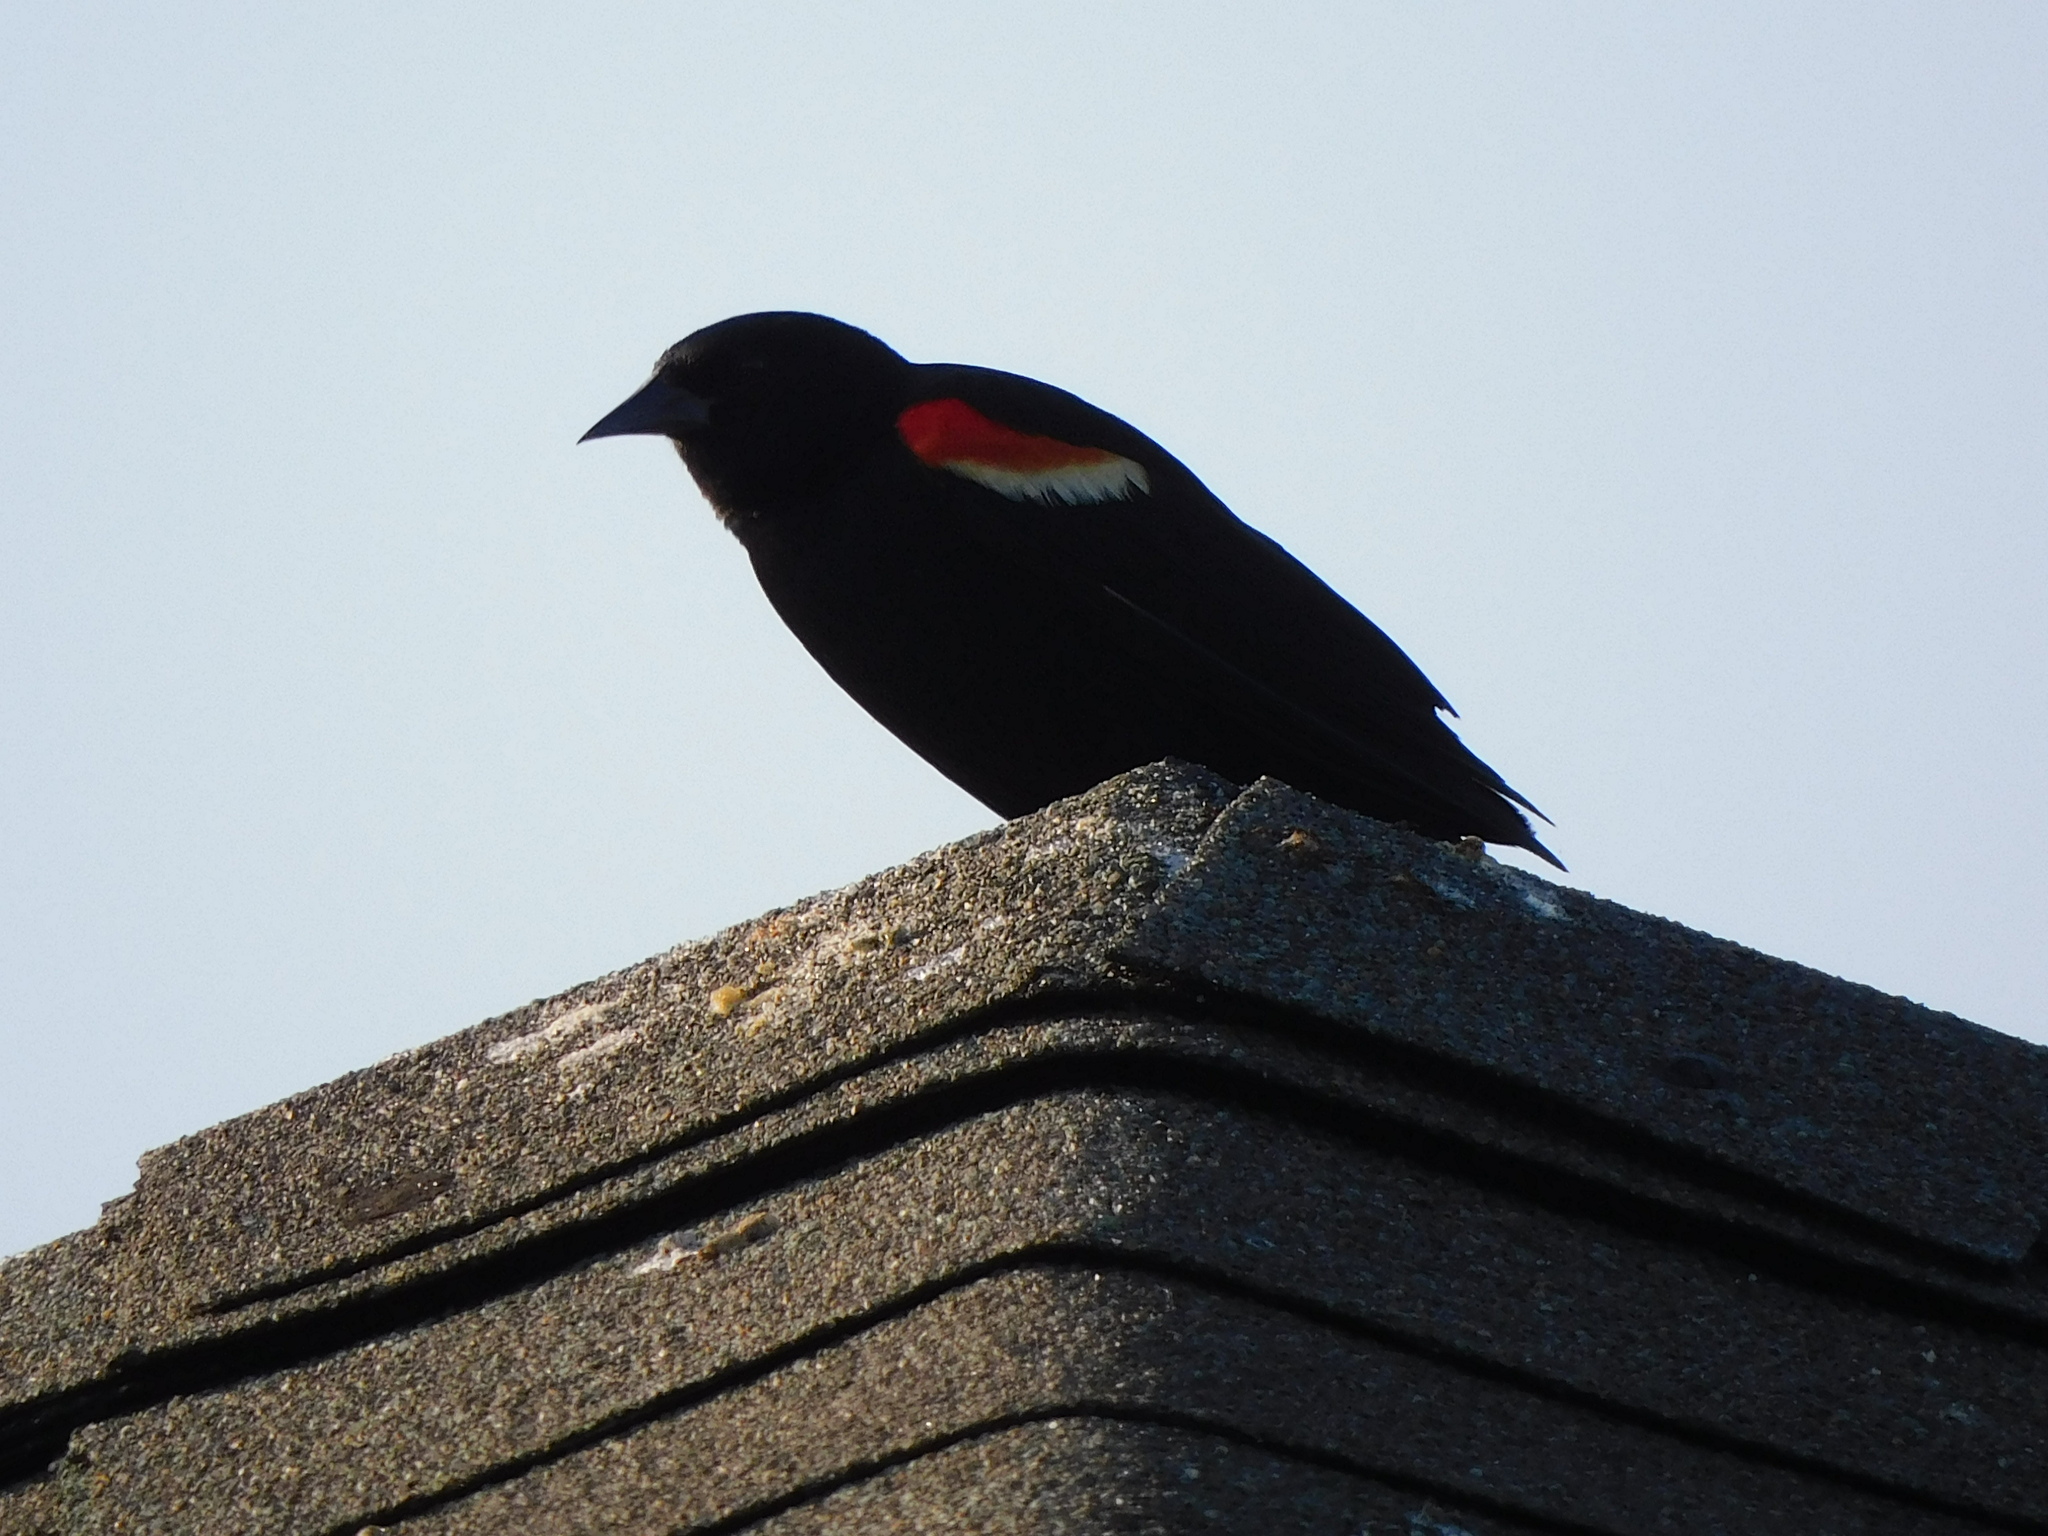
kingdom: Animalia
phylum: Chordata
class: Aves
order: Passeriformes
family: Icteridae
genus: Agelaius
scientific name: Agelaius phoeniceus
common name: Red-winged blackbird
